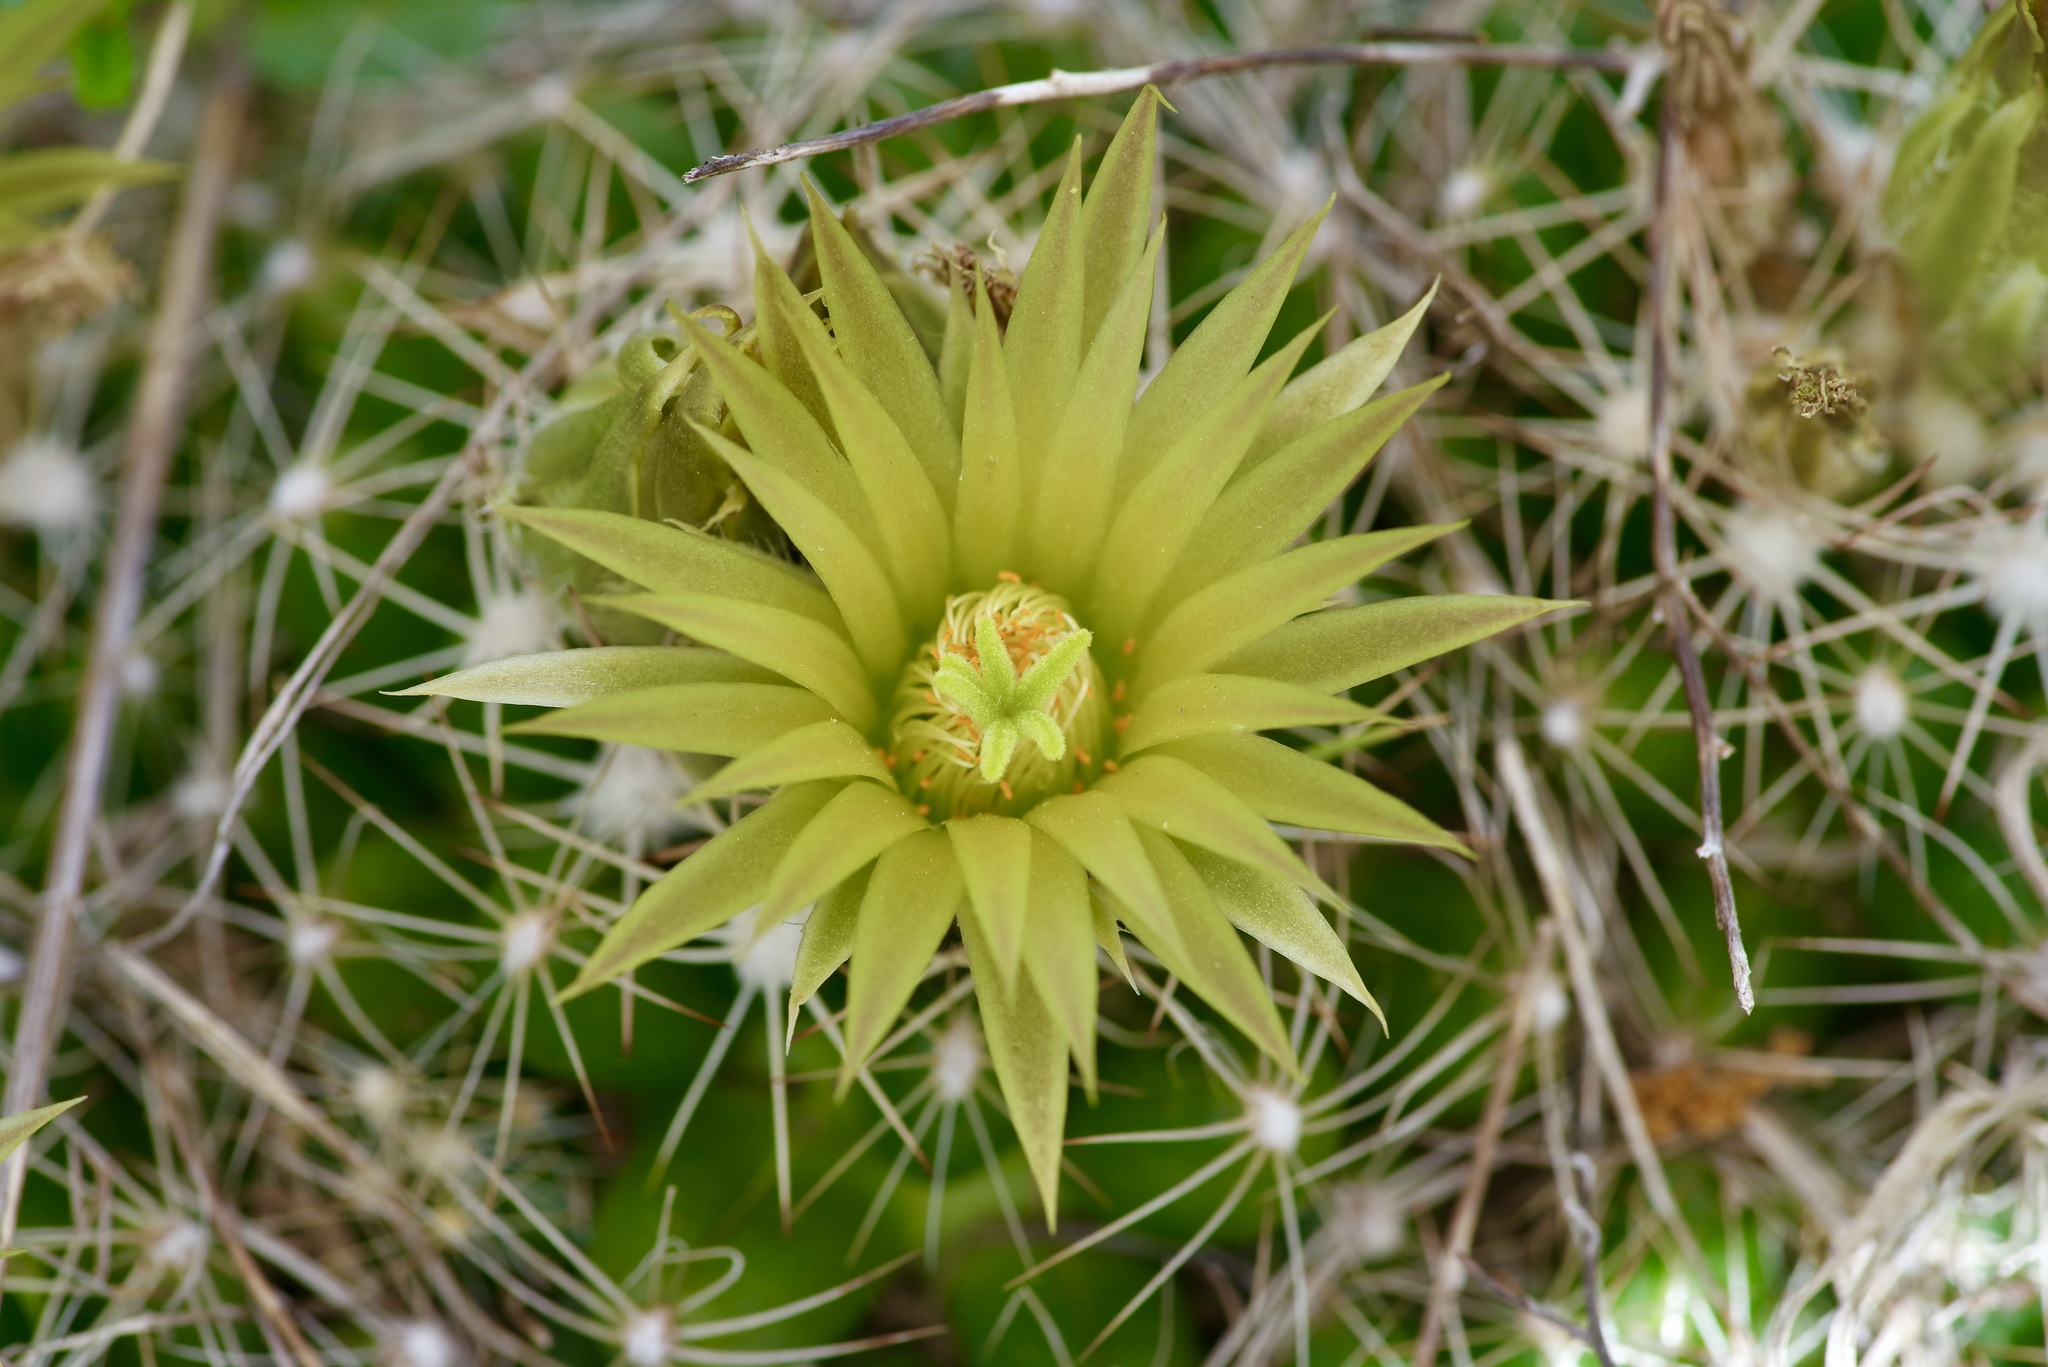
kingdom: Plantae
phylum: Tracheophyta
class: Magnoliopsida
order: Caryophyllales
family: Cactaceae
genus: Pelecyphora
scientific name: Pelecyphora missouriensis
